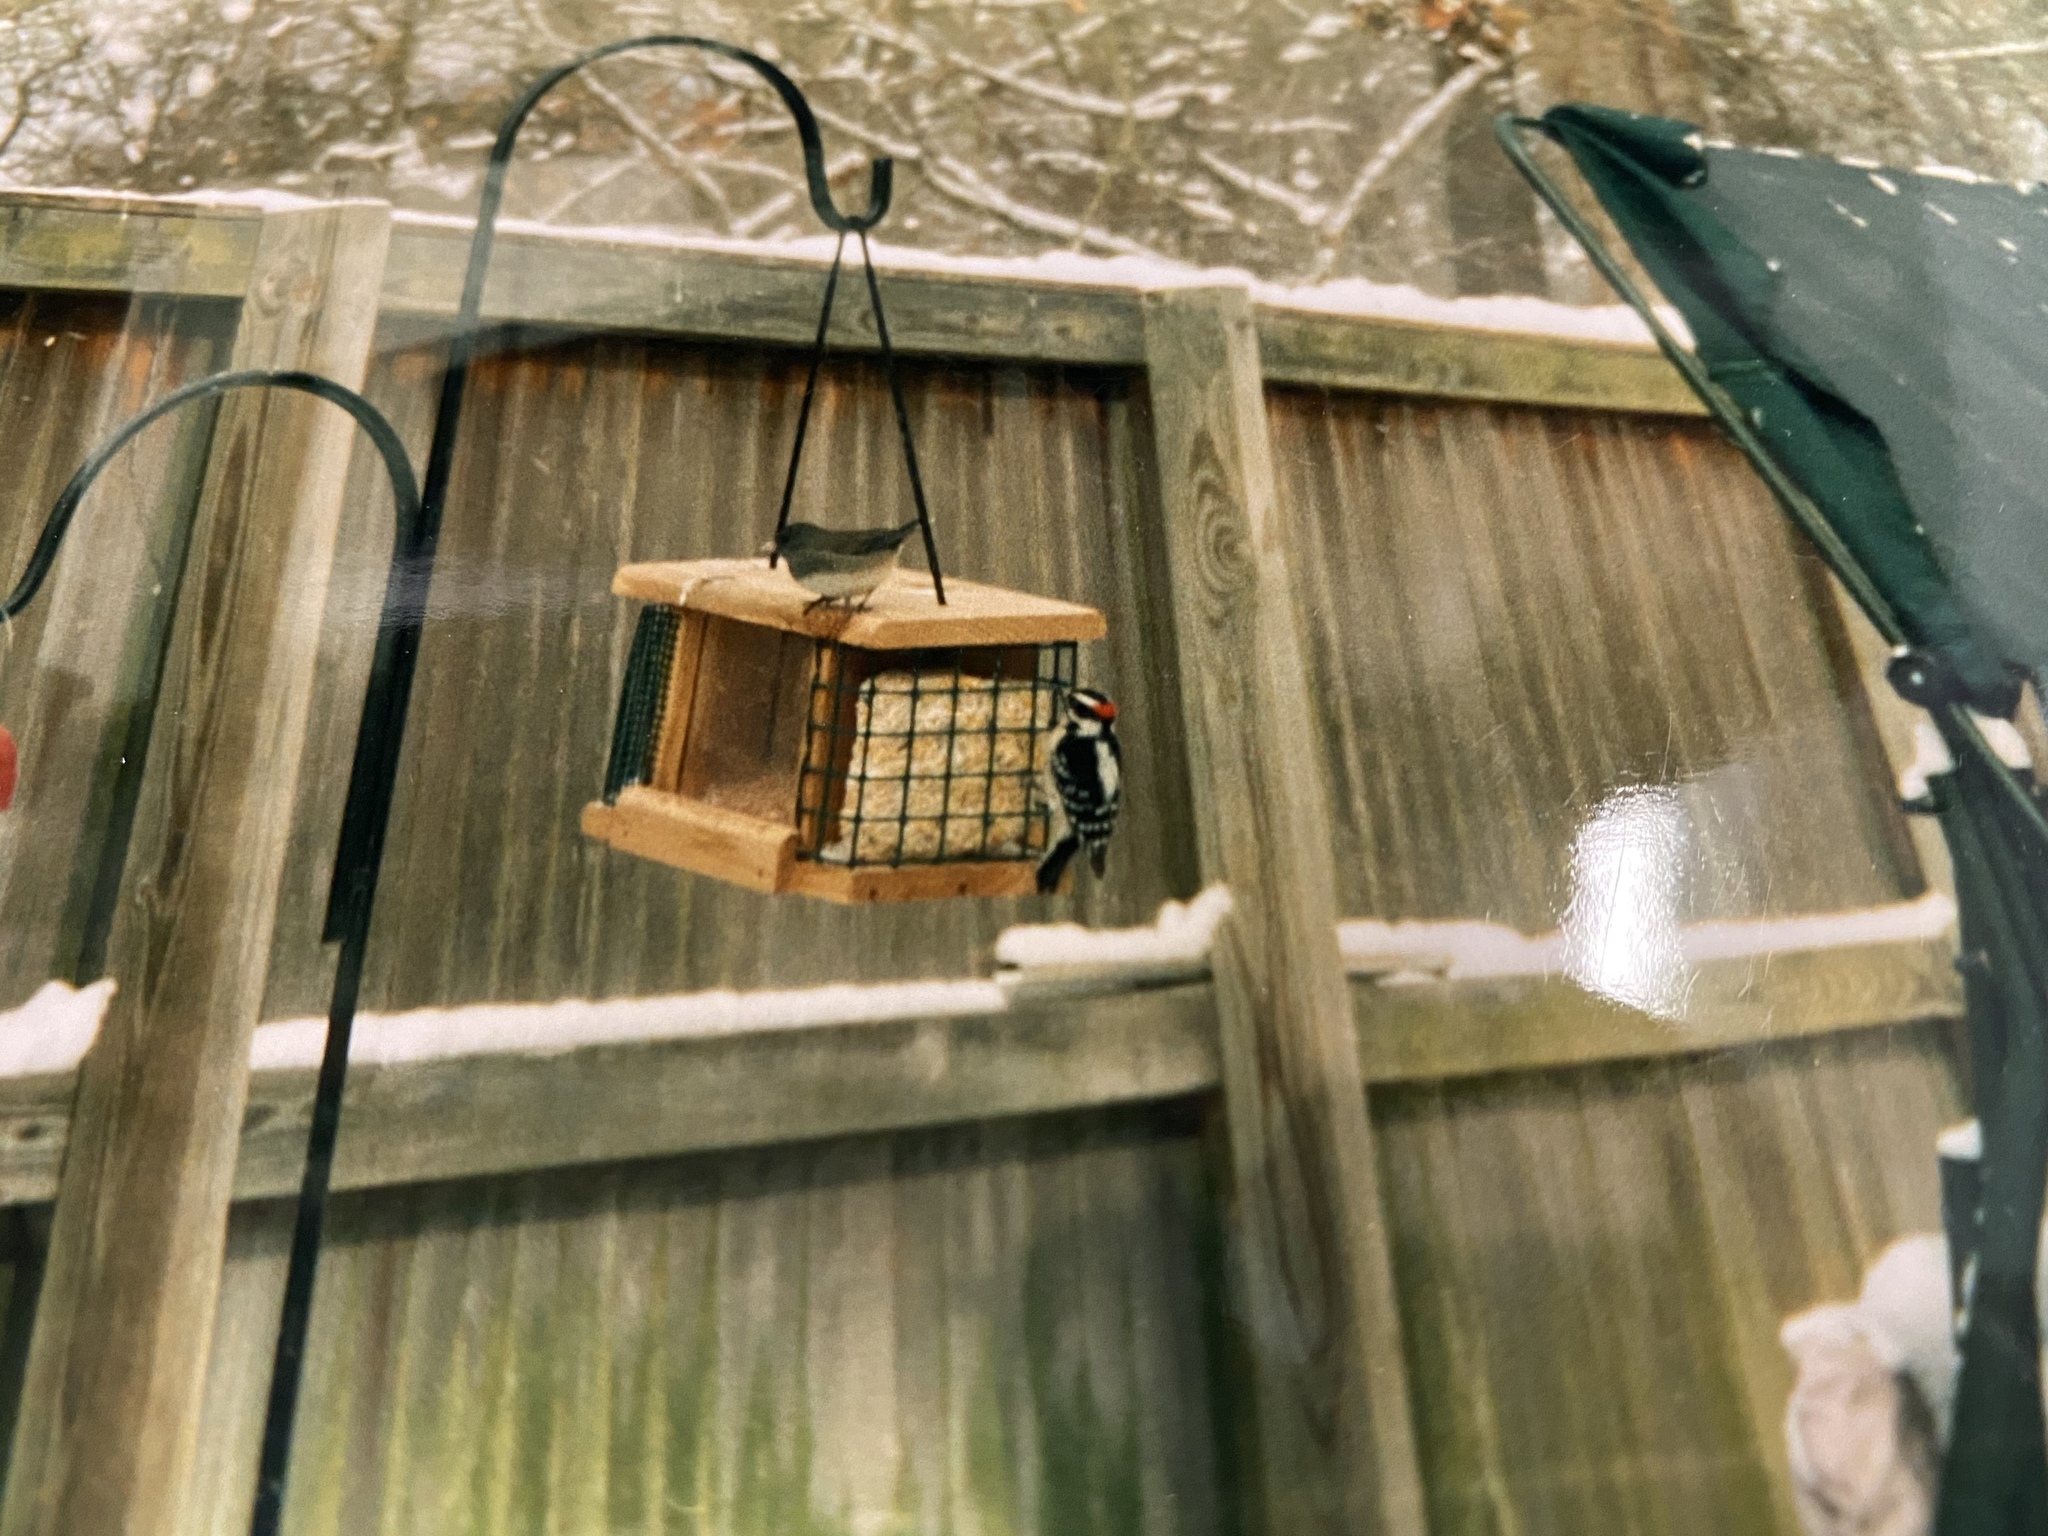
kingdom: Animalia
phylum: Chordata
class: Aves
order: Piciformes
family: Picidae
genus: Dryobates
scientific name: Dryobates pubescens
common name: Downy woodpecker
